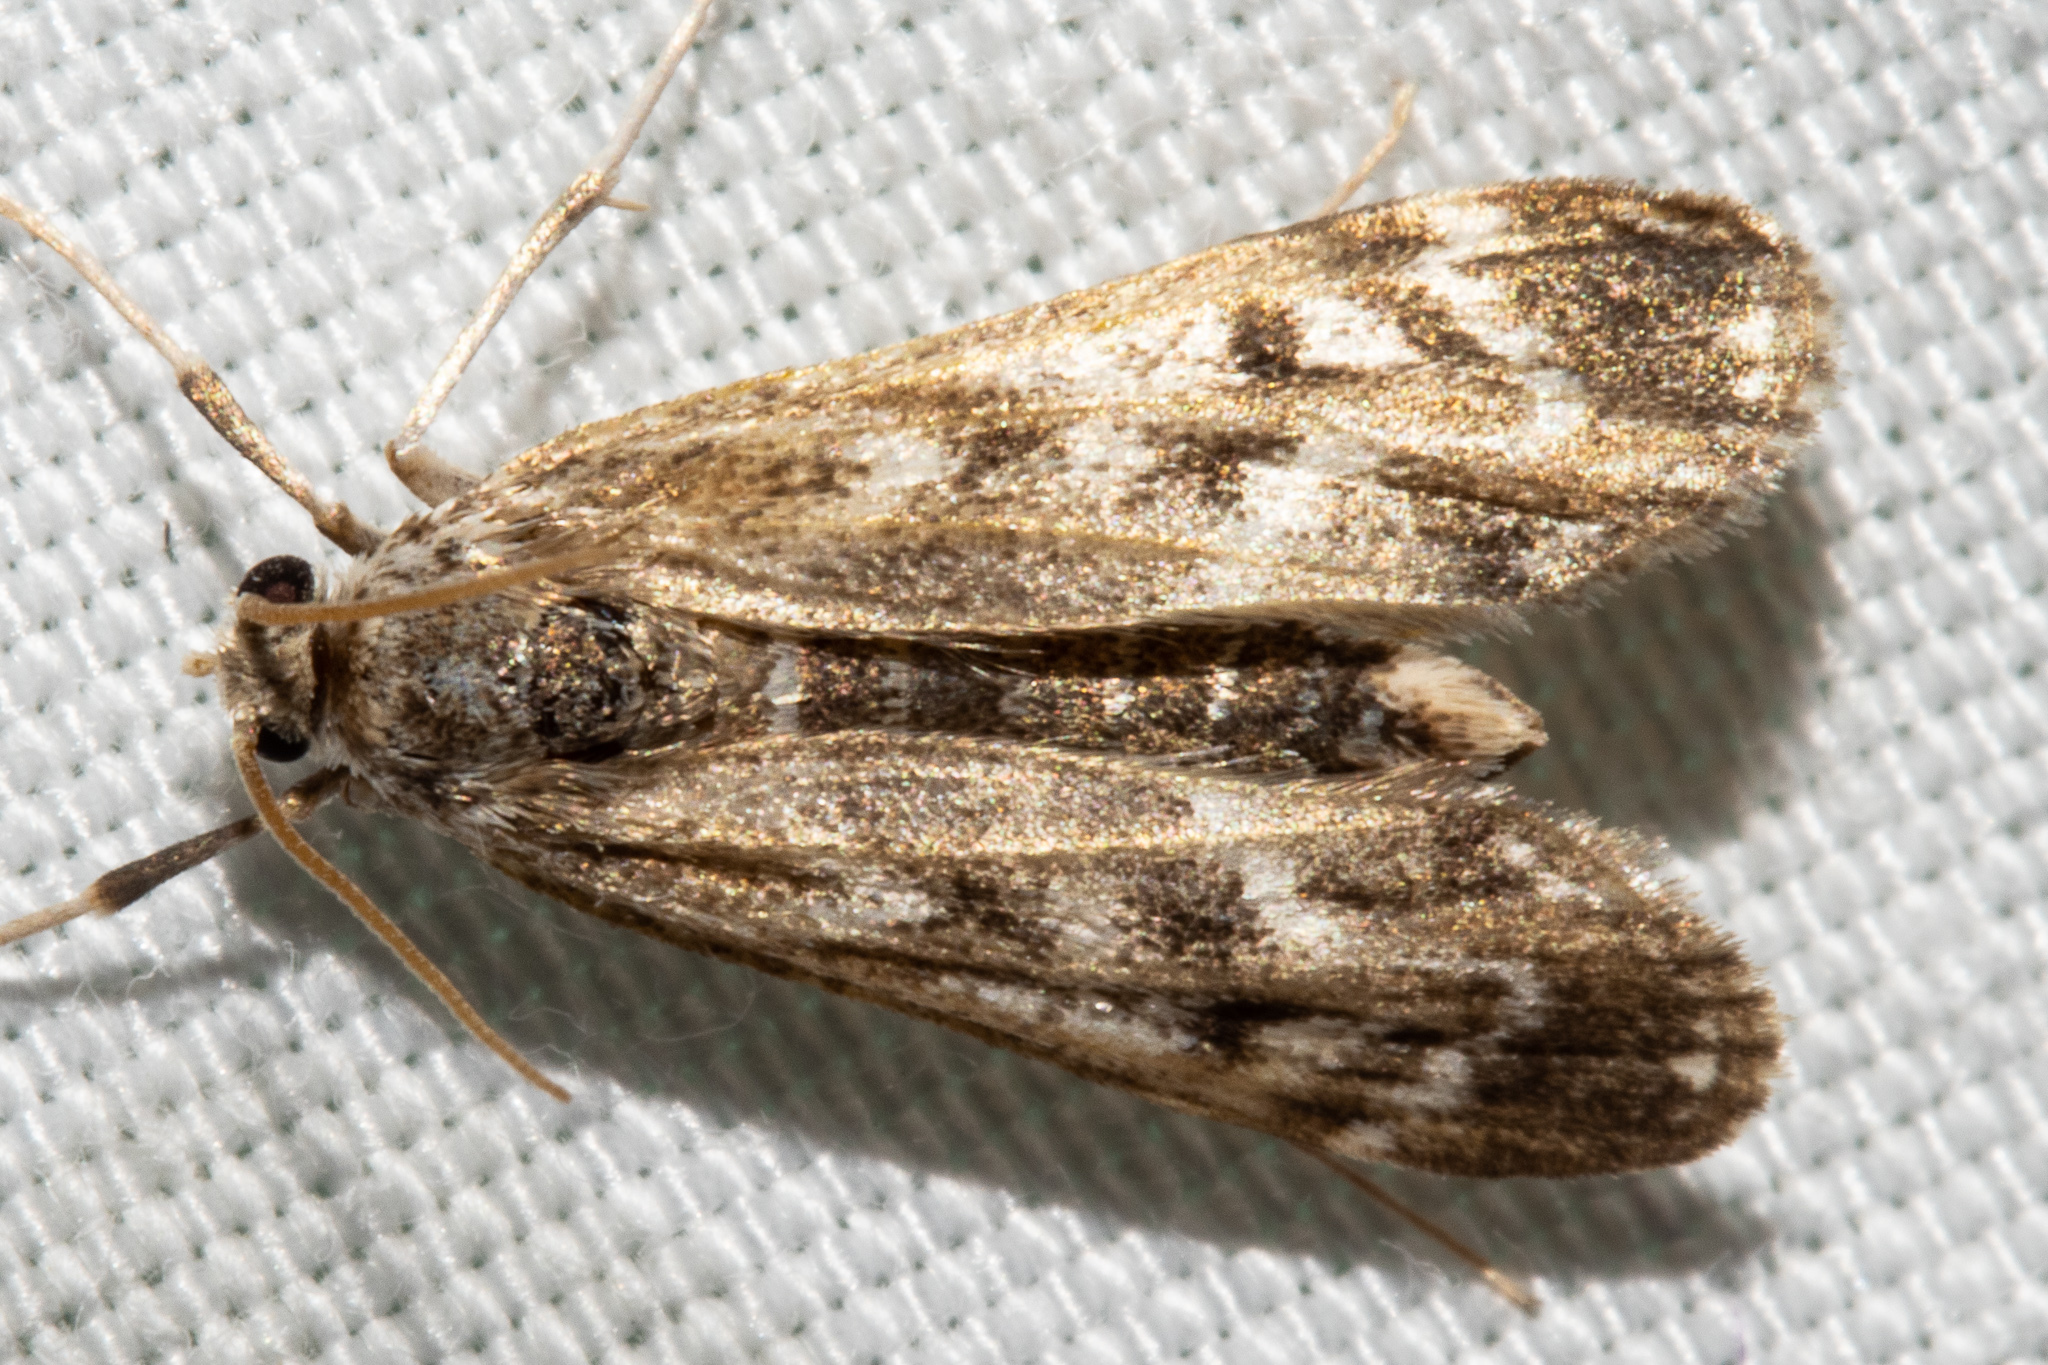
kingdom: Animalia
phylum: Arthropoda
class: Insecta
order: Lepidoptera
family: Crambidae
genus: Hygraula
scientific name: Hygraula nitens
